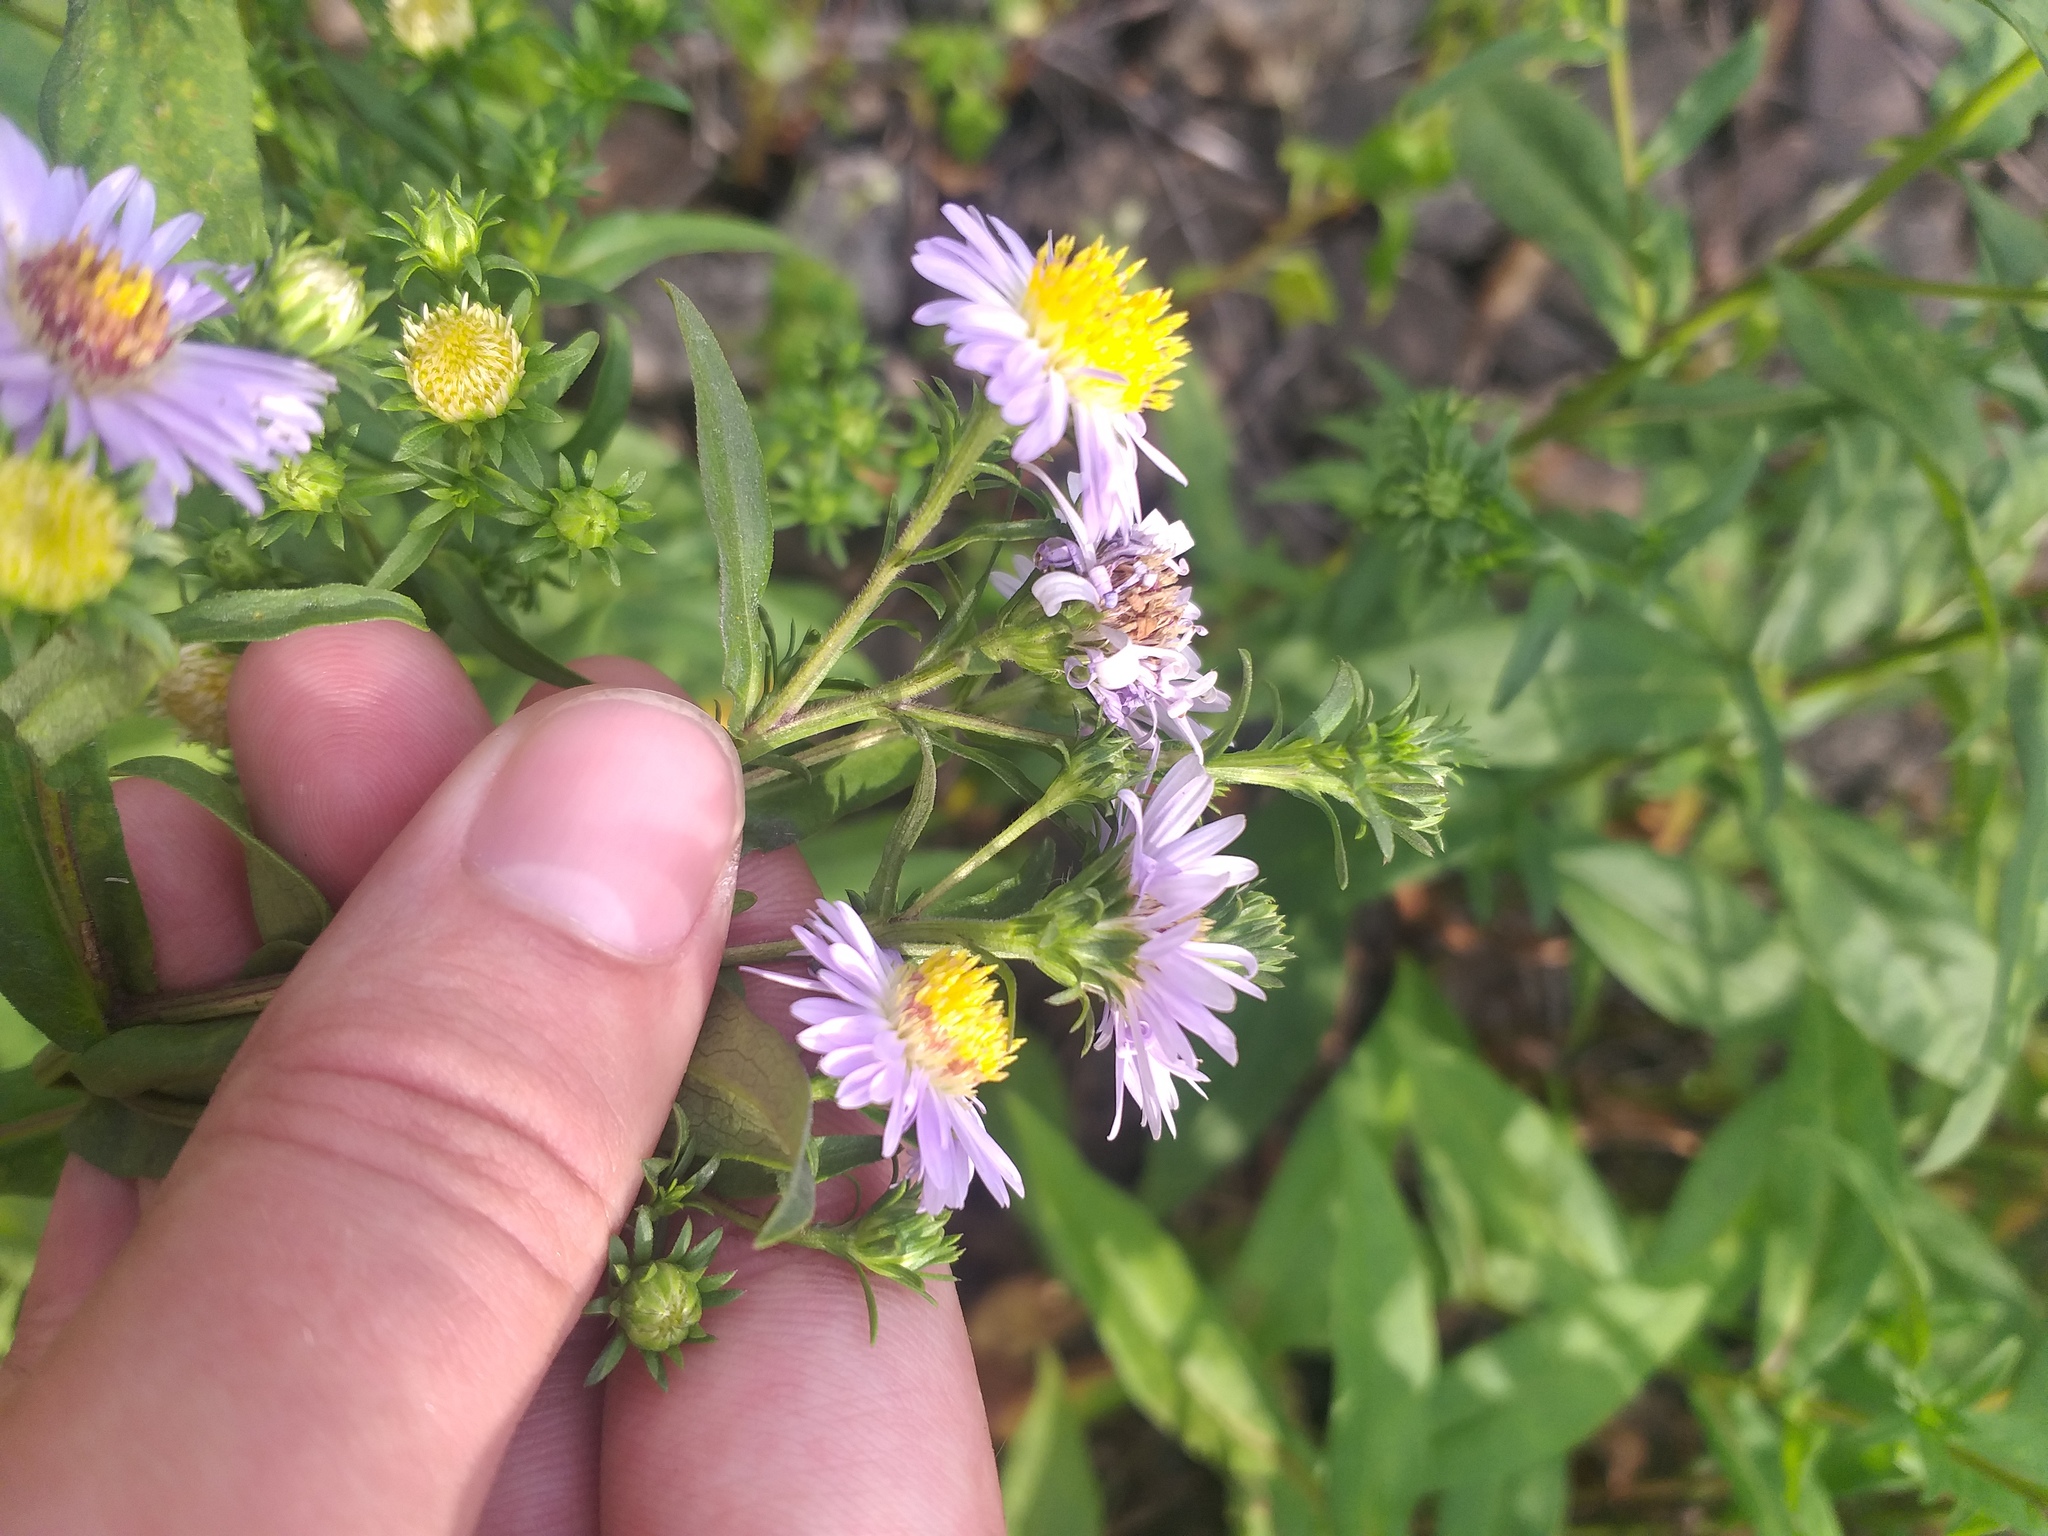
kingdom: Plantae
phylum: Tracheophyta
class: Magnoliopsida
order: Asterales
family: Asteraceae
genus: Symphyotrichum
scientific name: Symphyotrichum novi-belgii
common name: Michaelmas daisy
